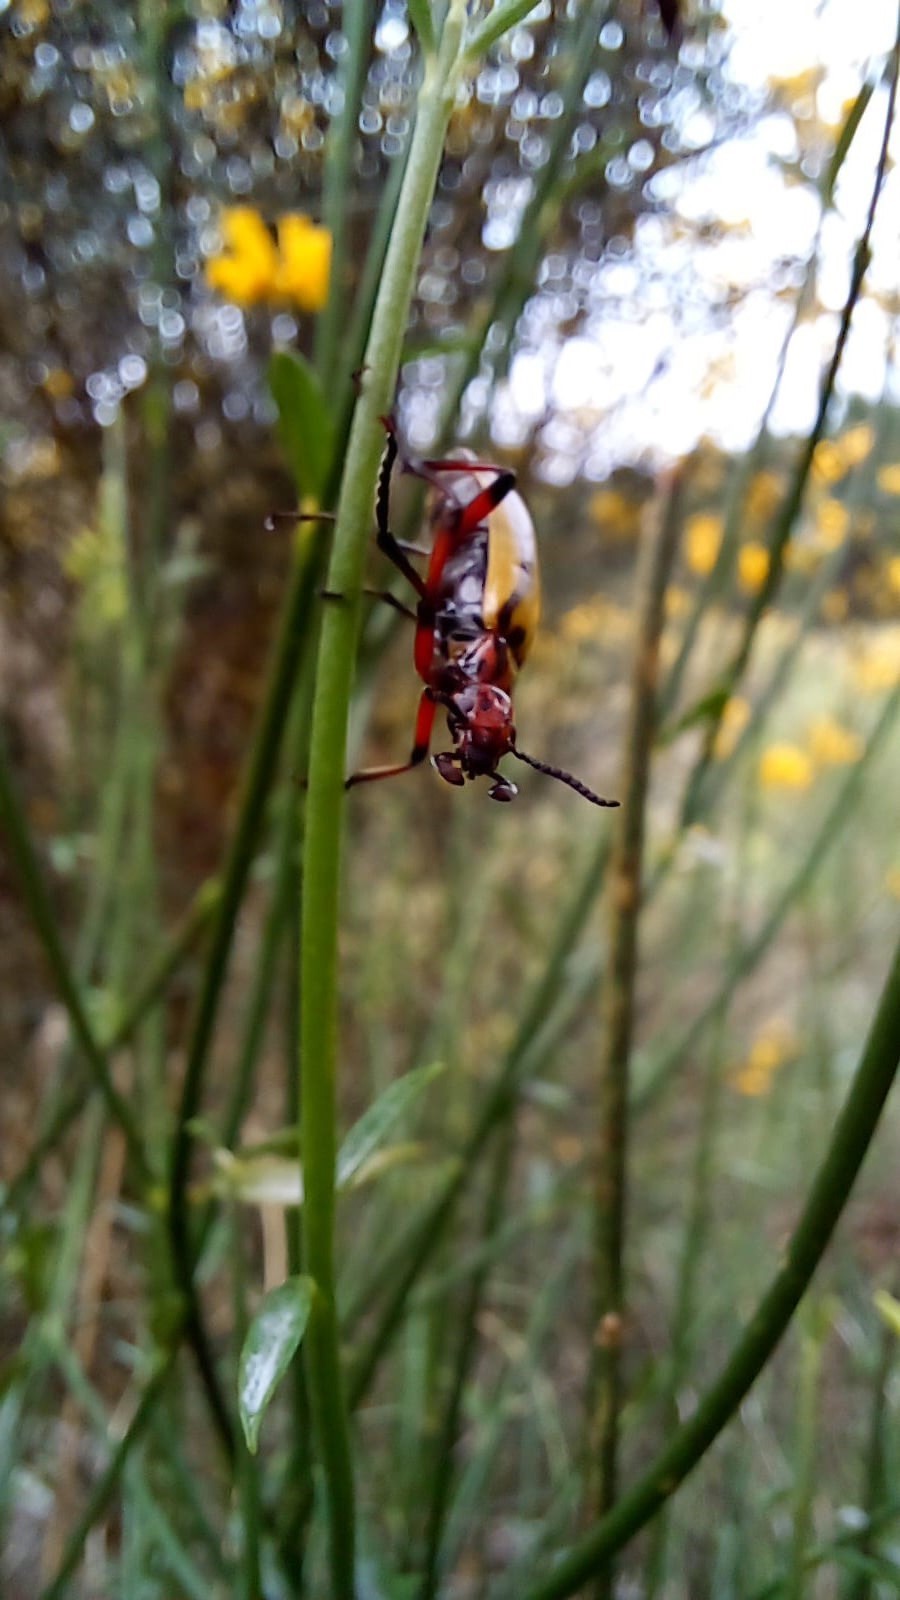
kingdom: Animalia
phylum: Arthropoda
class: Insecta
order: Coleoptera
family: Meloidae
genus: Pyrota
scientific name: Pyrota
